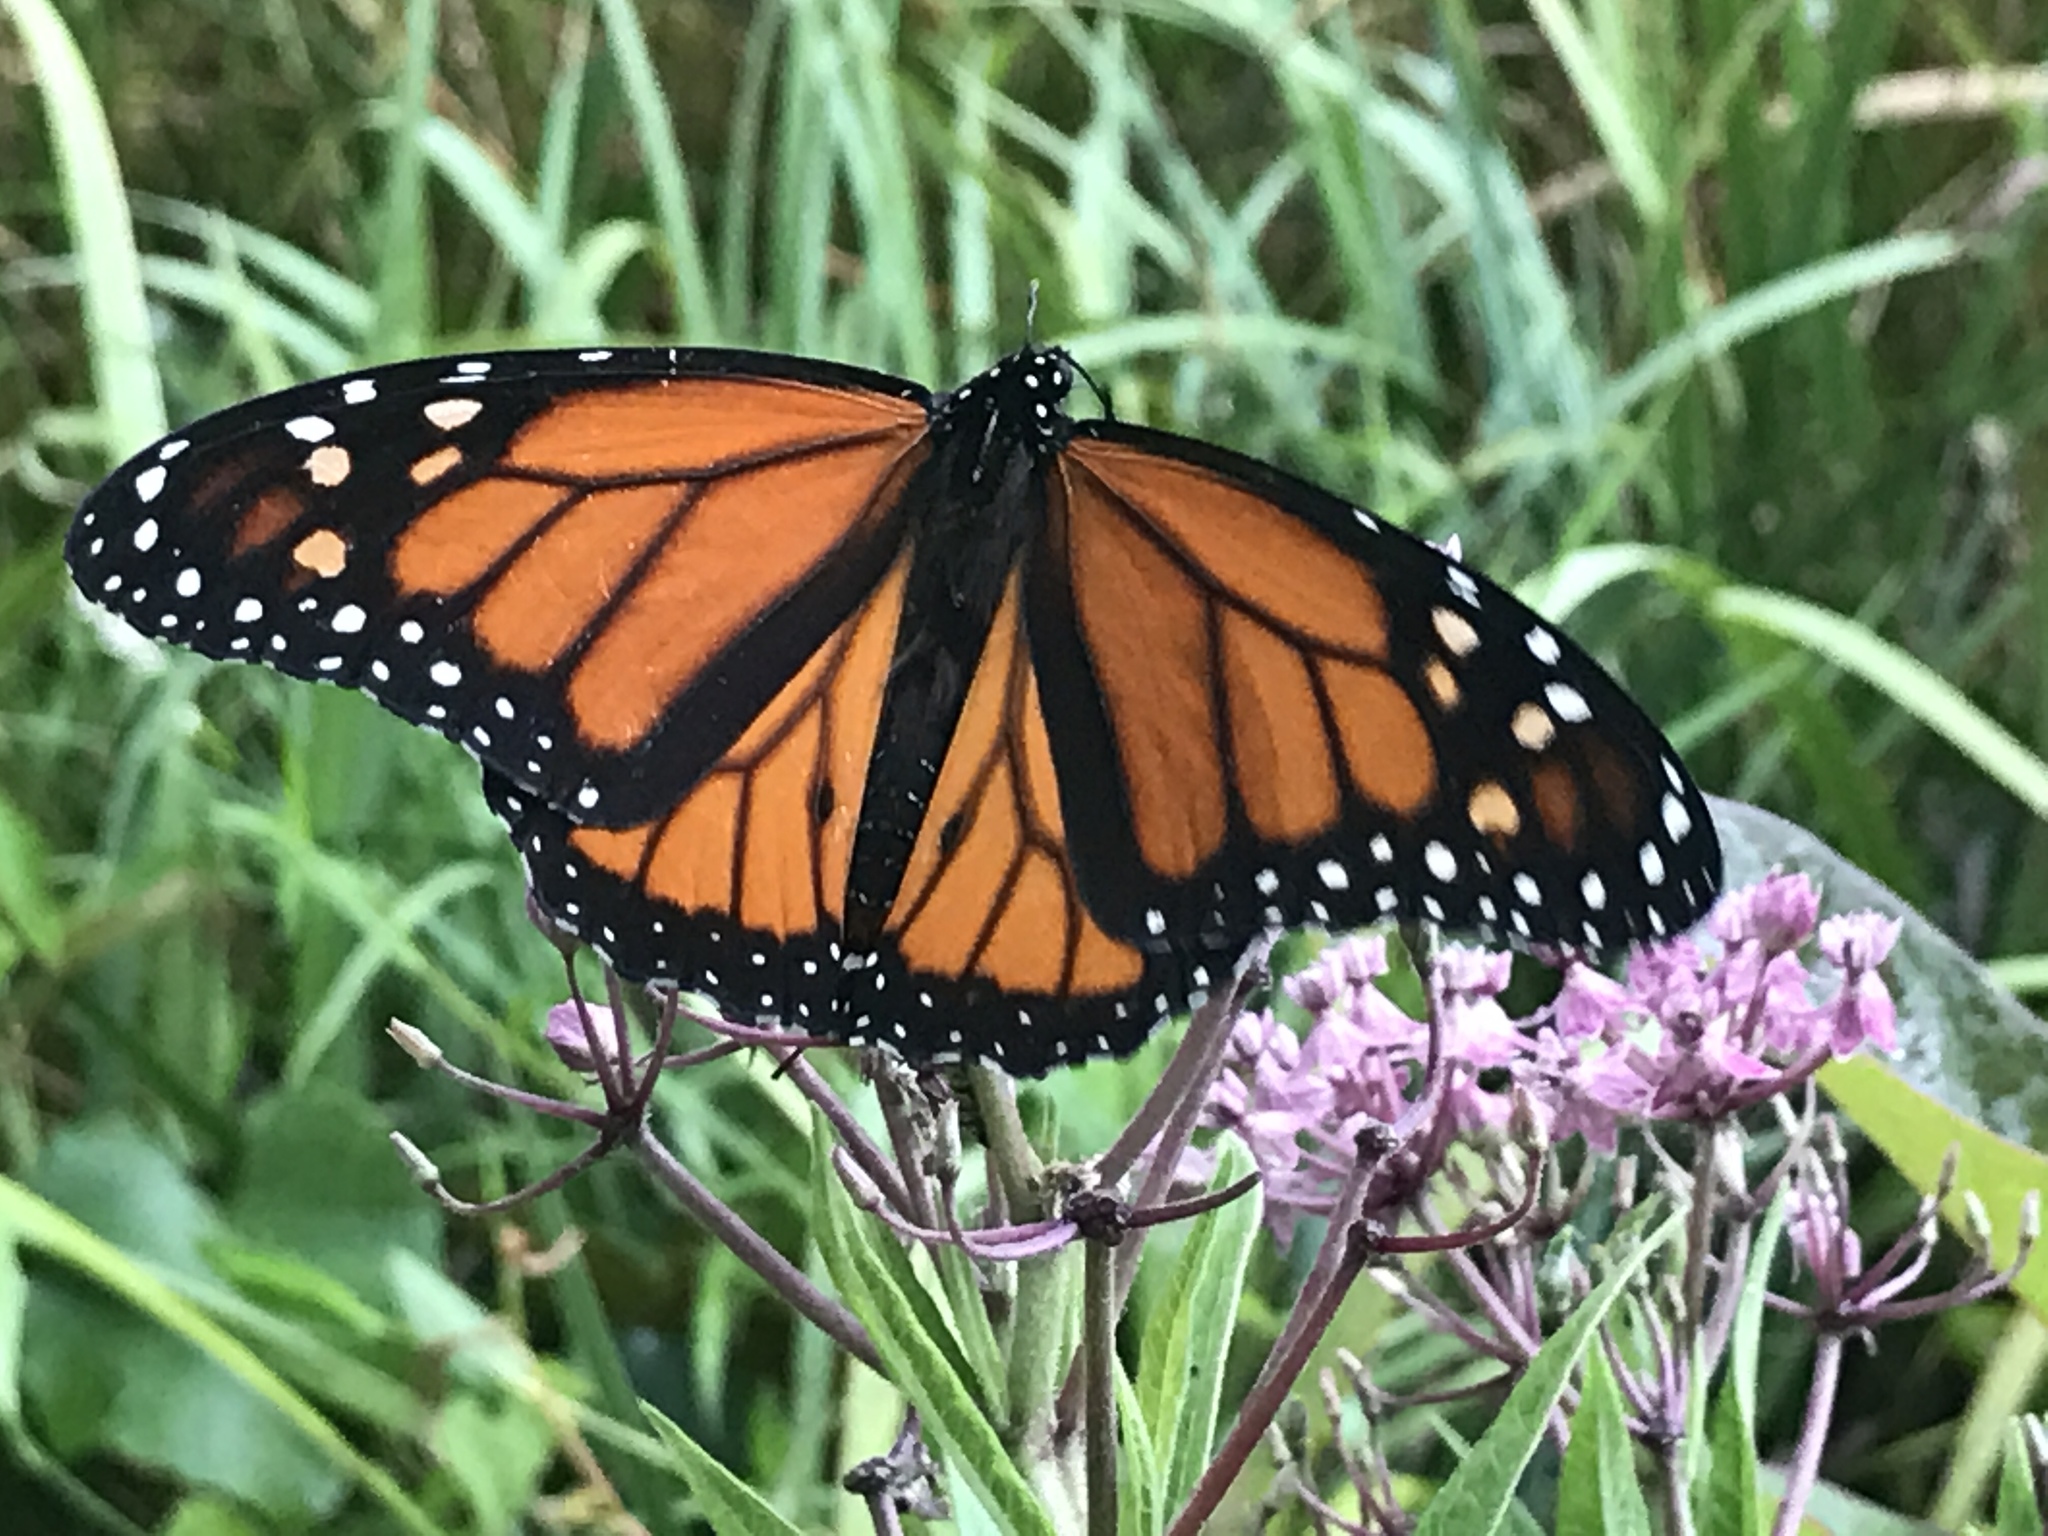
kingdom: Animalia
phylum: Arthropoda
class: Insecta
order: Lepidoptera
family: Nymphalidae
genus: Danaus
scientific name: Danaus plexippus
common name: Monarch
